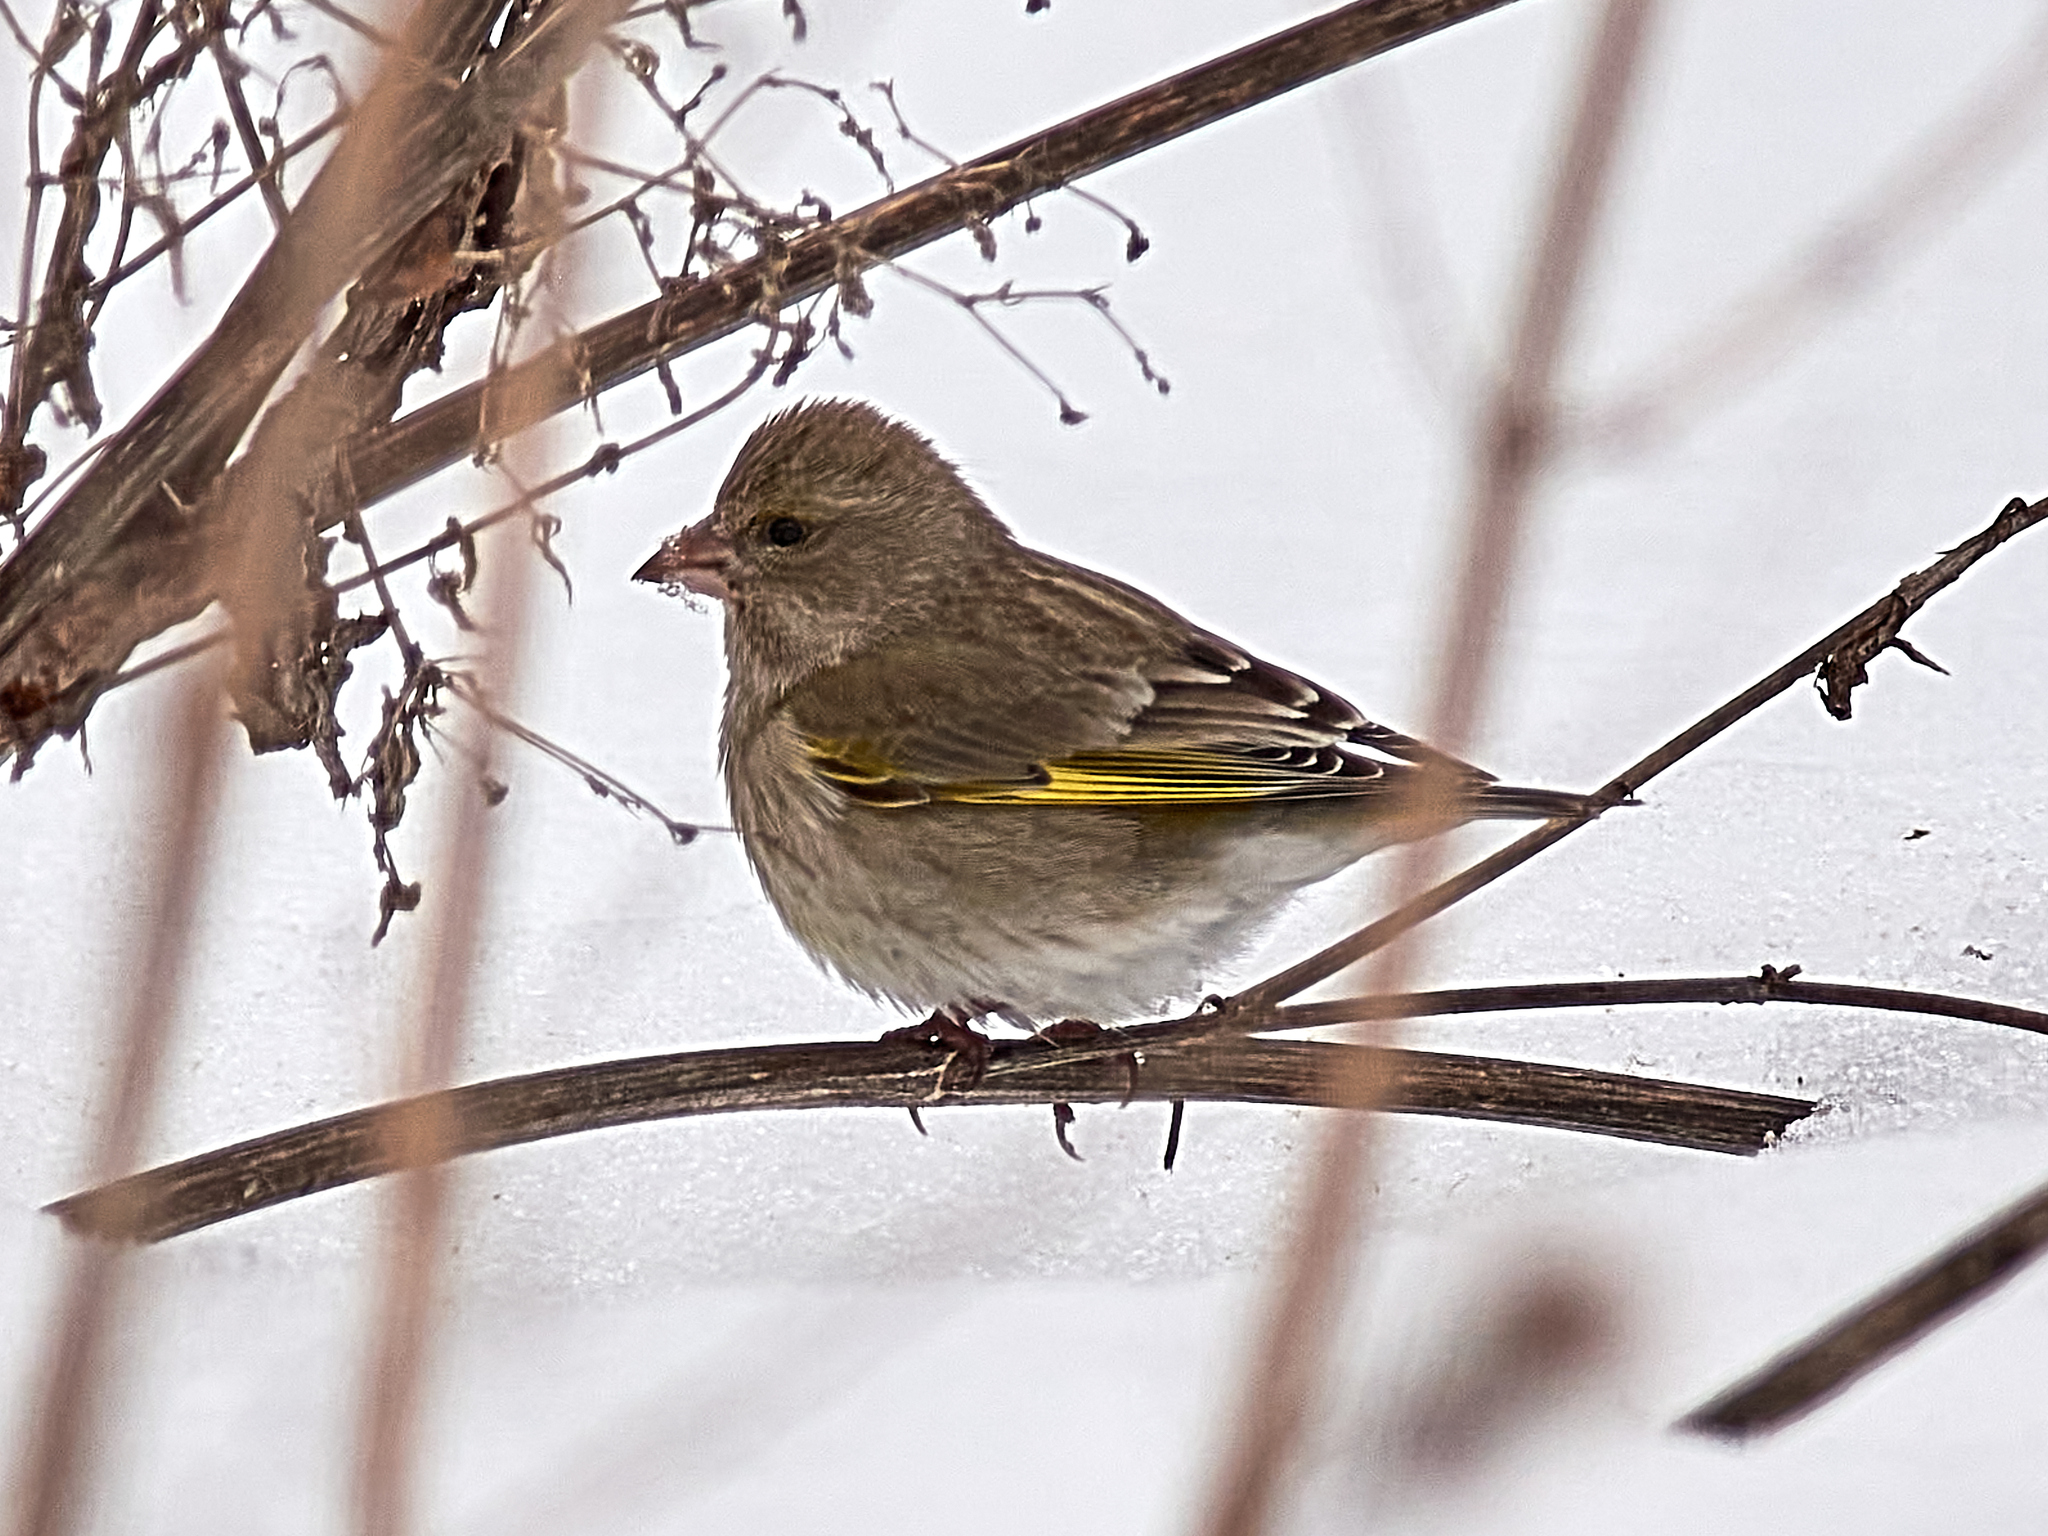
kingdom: Plantae
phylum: Tracheophyta
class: Liliopsida
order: Poales
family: Poaceae
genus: Chloris
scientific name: Chloris chloris
